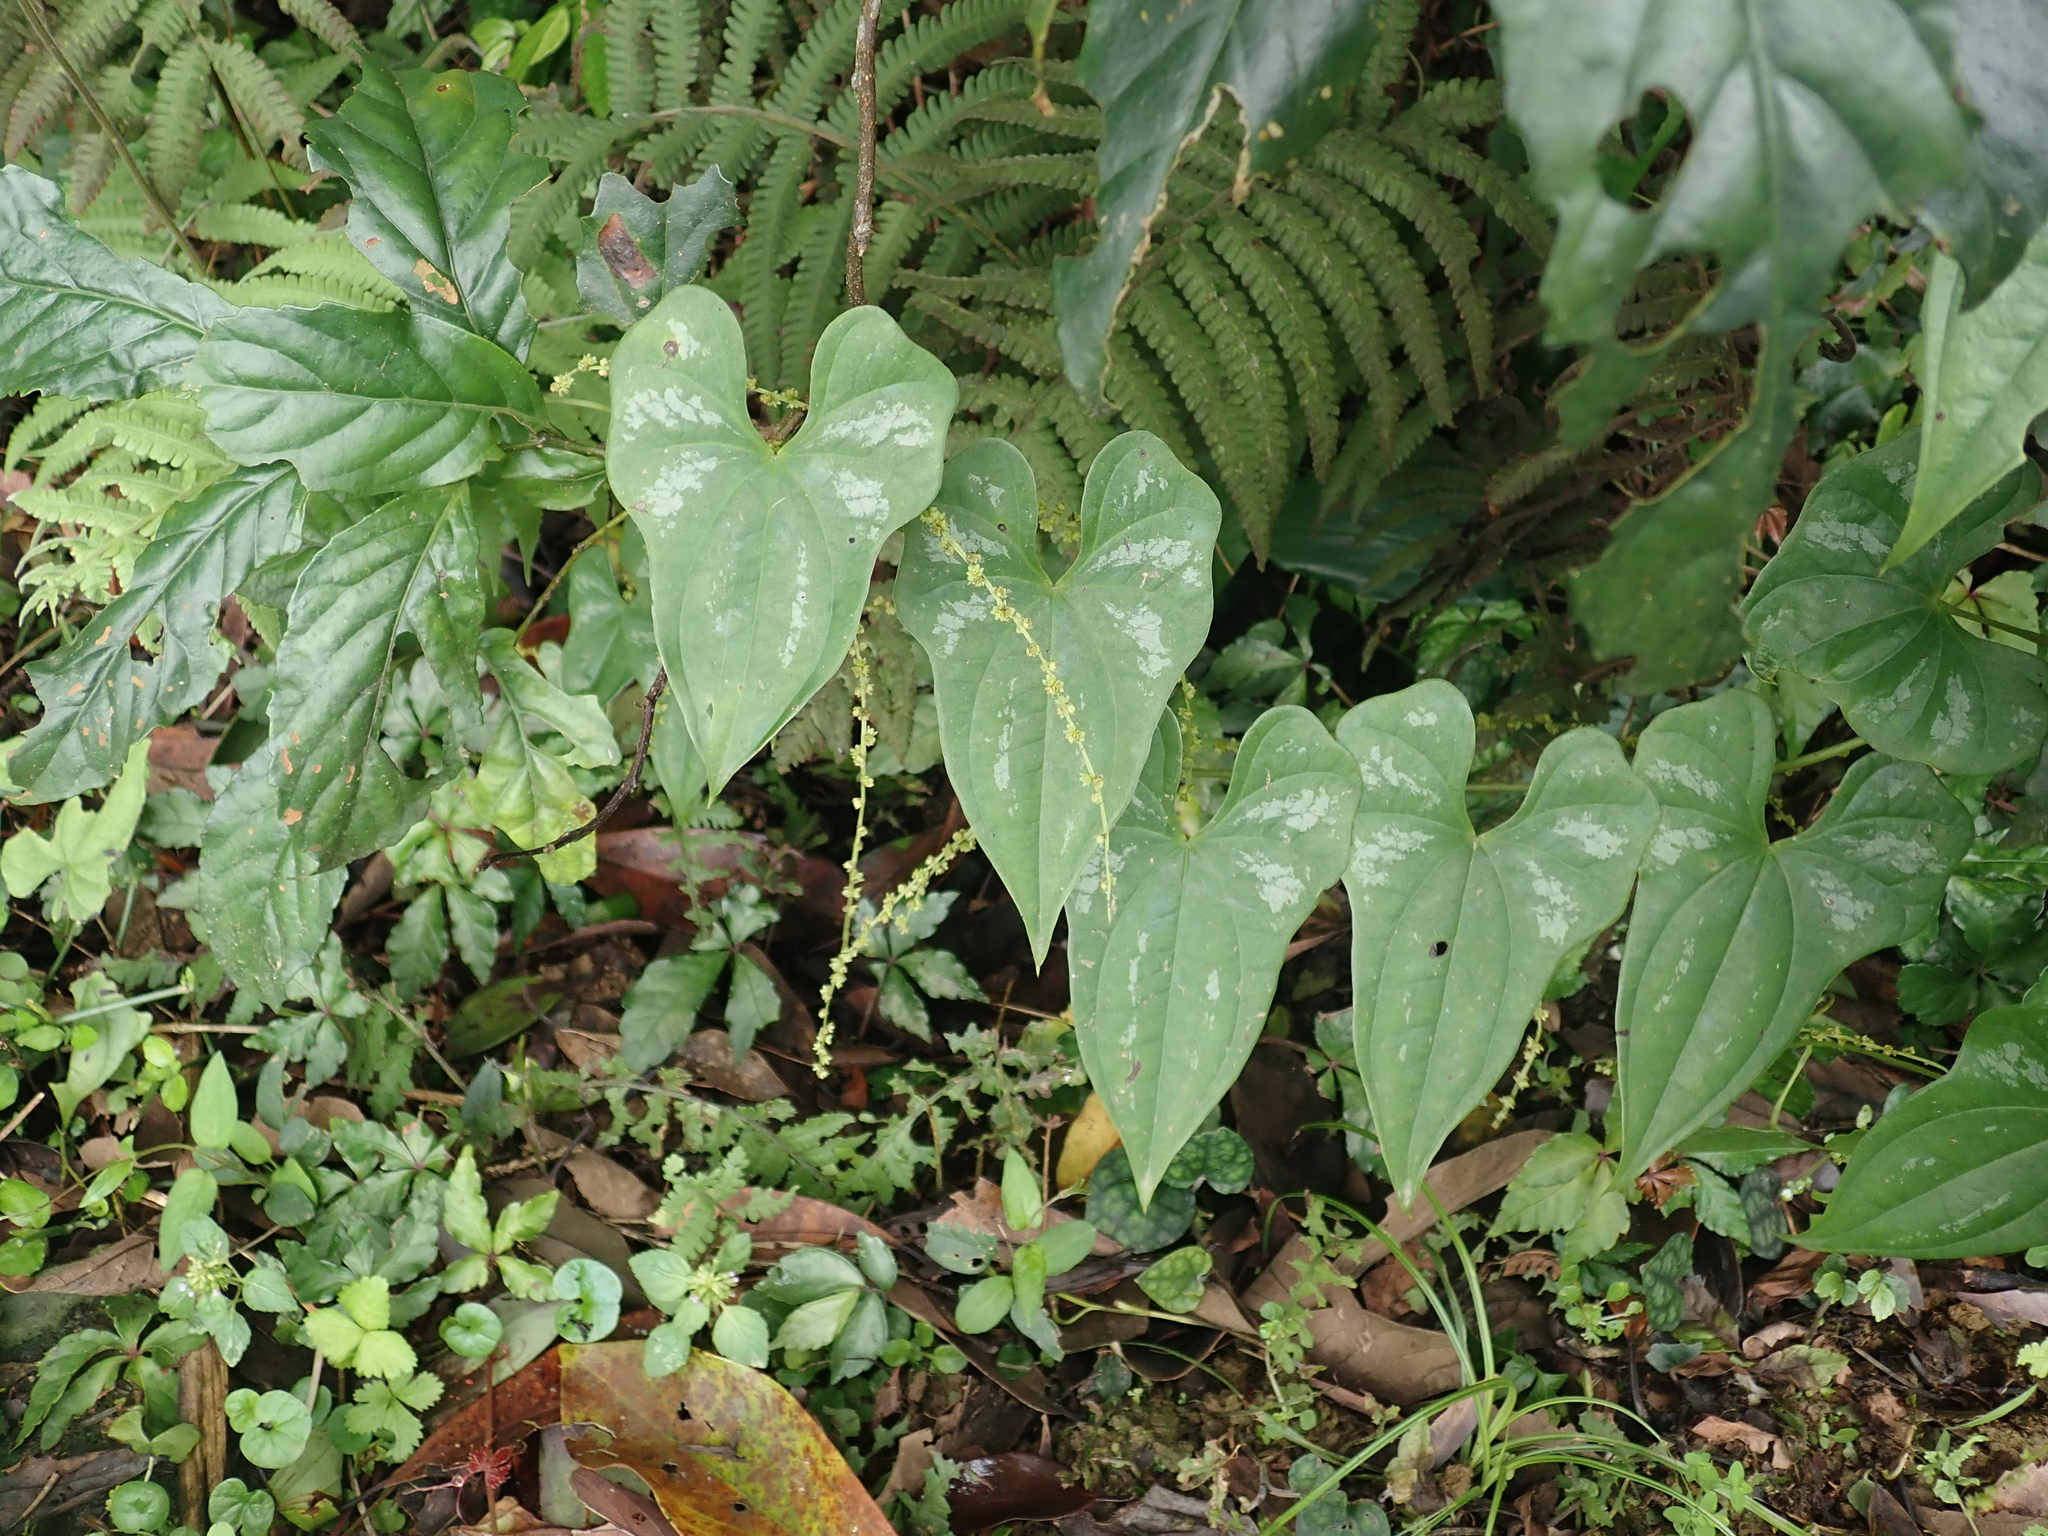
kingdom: Plantae
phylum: Tracheophyta
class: Liliopsida
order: Dioscoreales
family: Dioscoreaceae
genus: Dioscorea
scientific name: Dioscorea collettii
